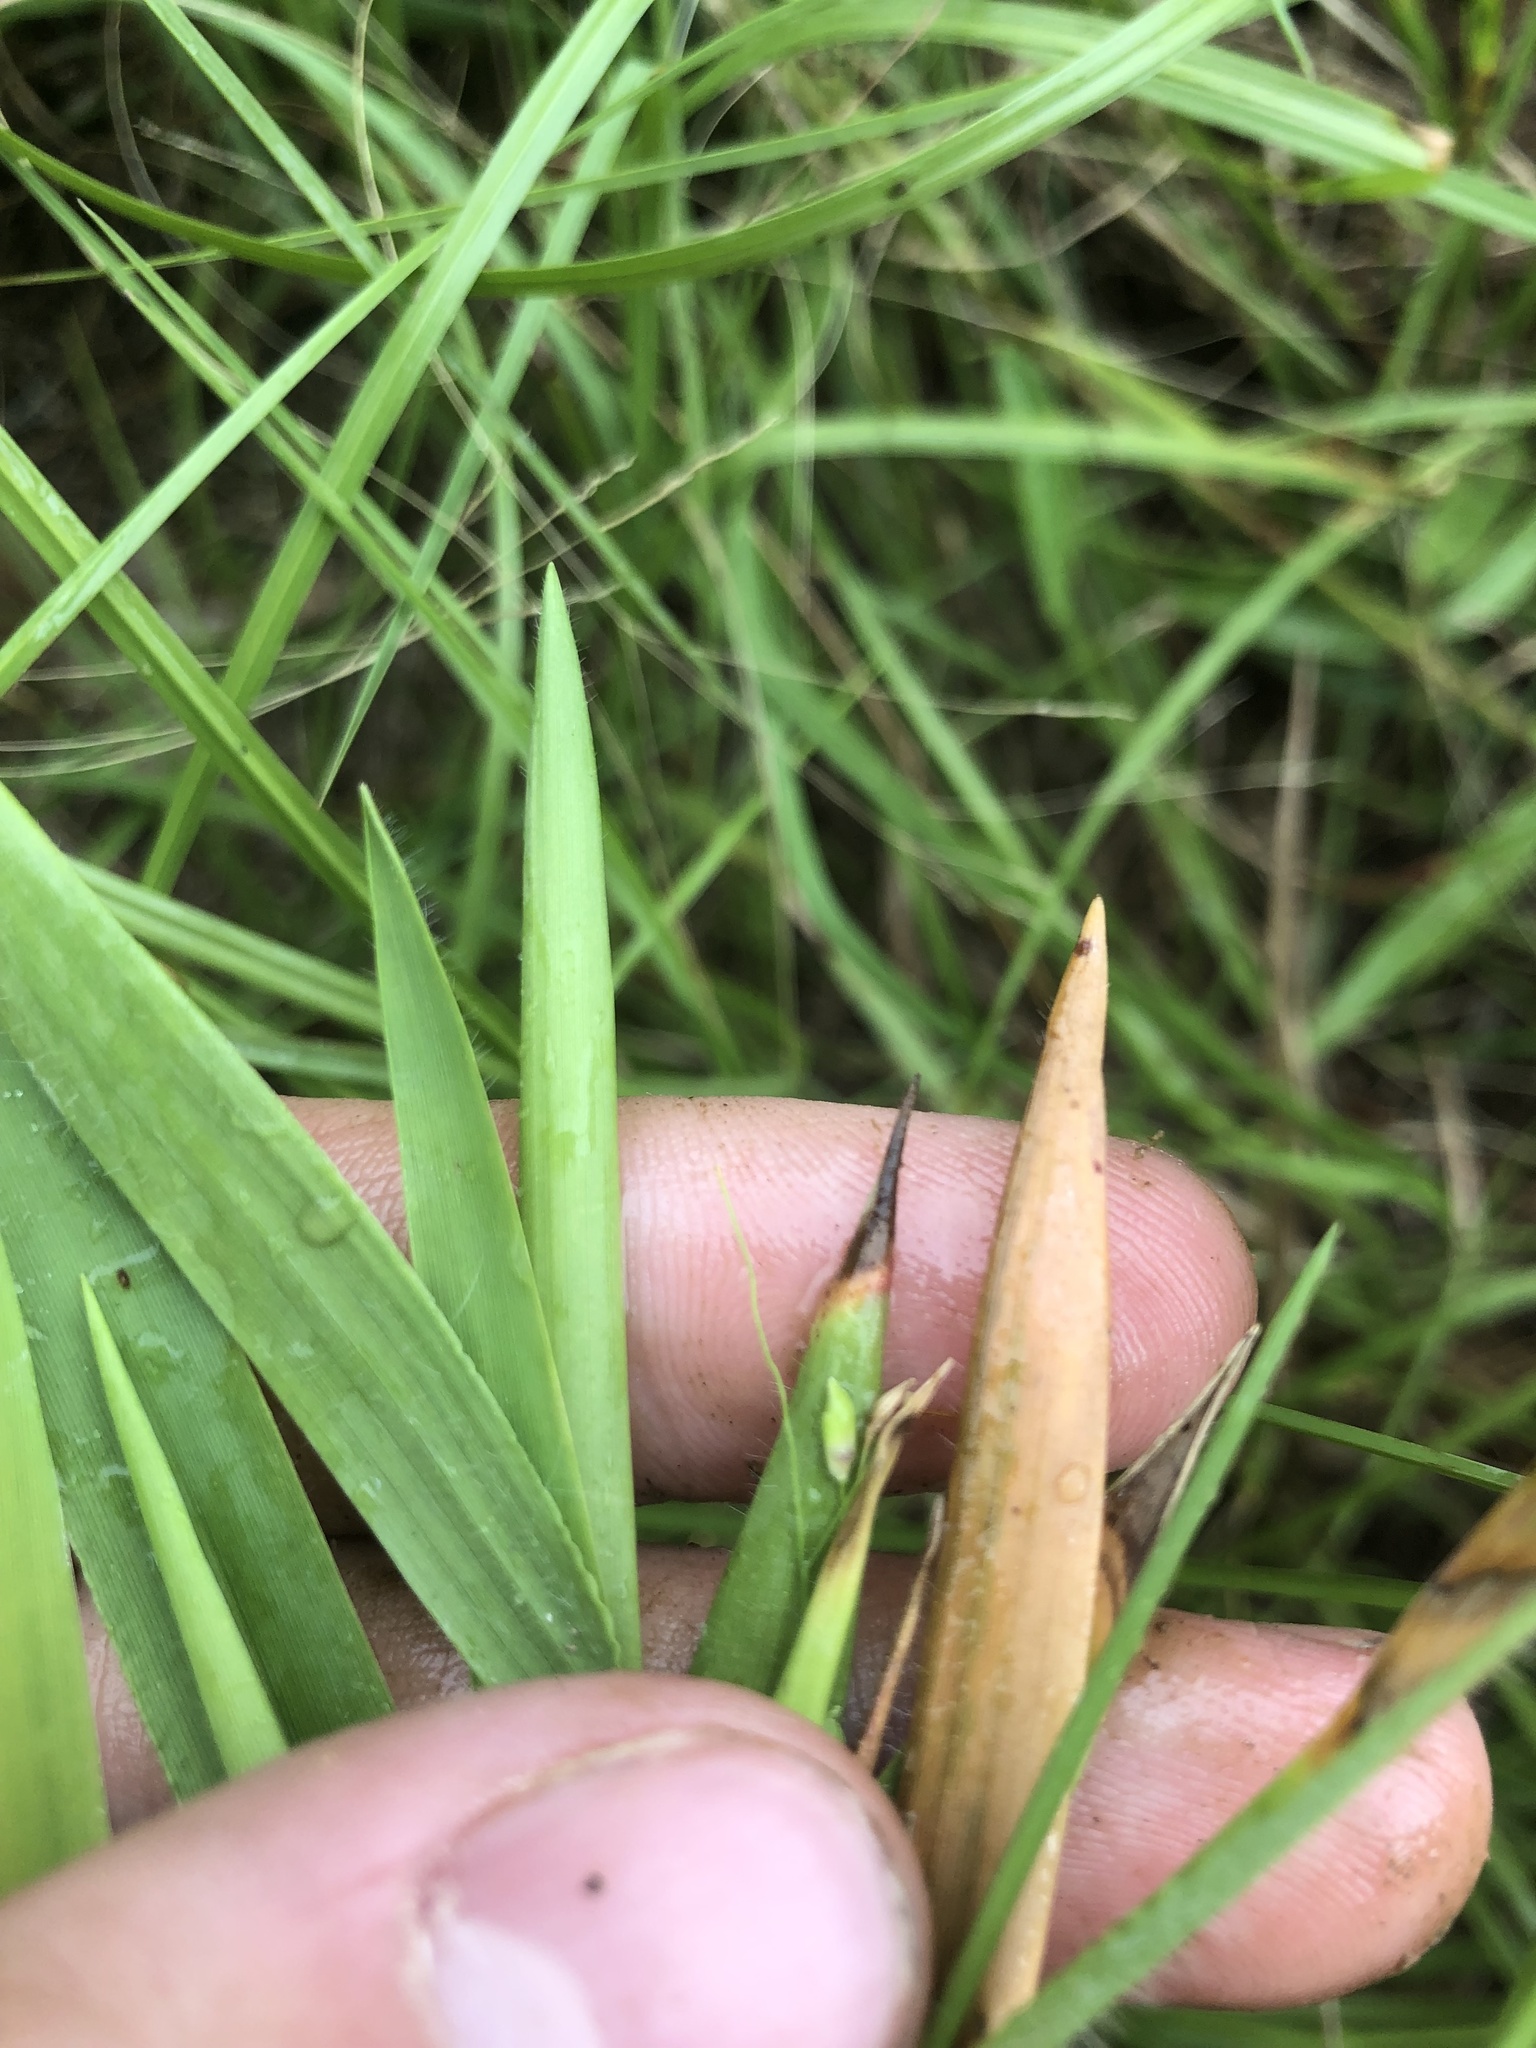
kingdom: Plantae
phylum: Tracheophyta
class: Liliopsida
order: Poales
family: Poaceae
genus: Dichanthelium
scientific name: Dichanthelium scribnerianum
